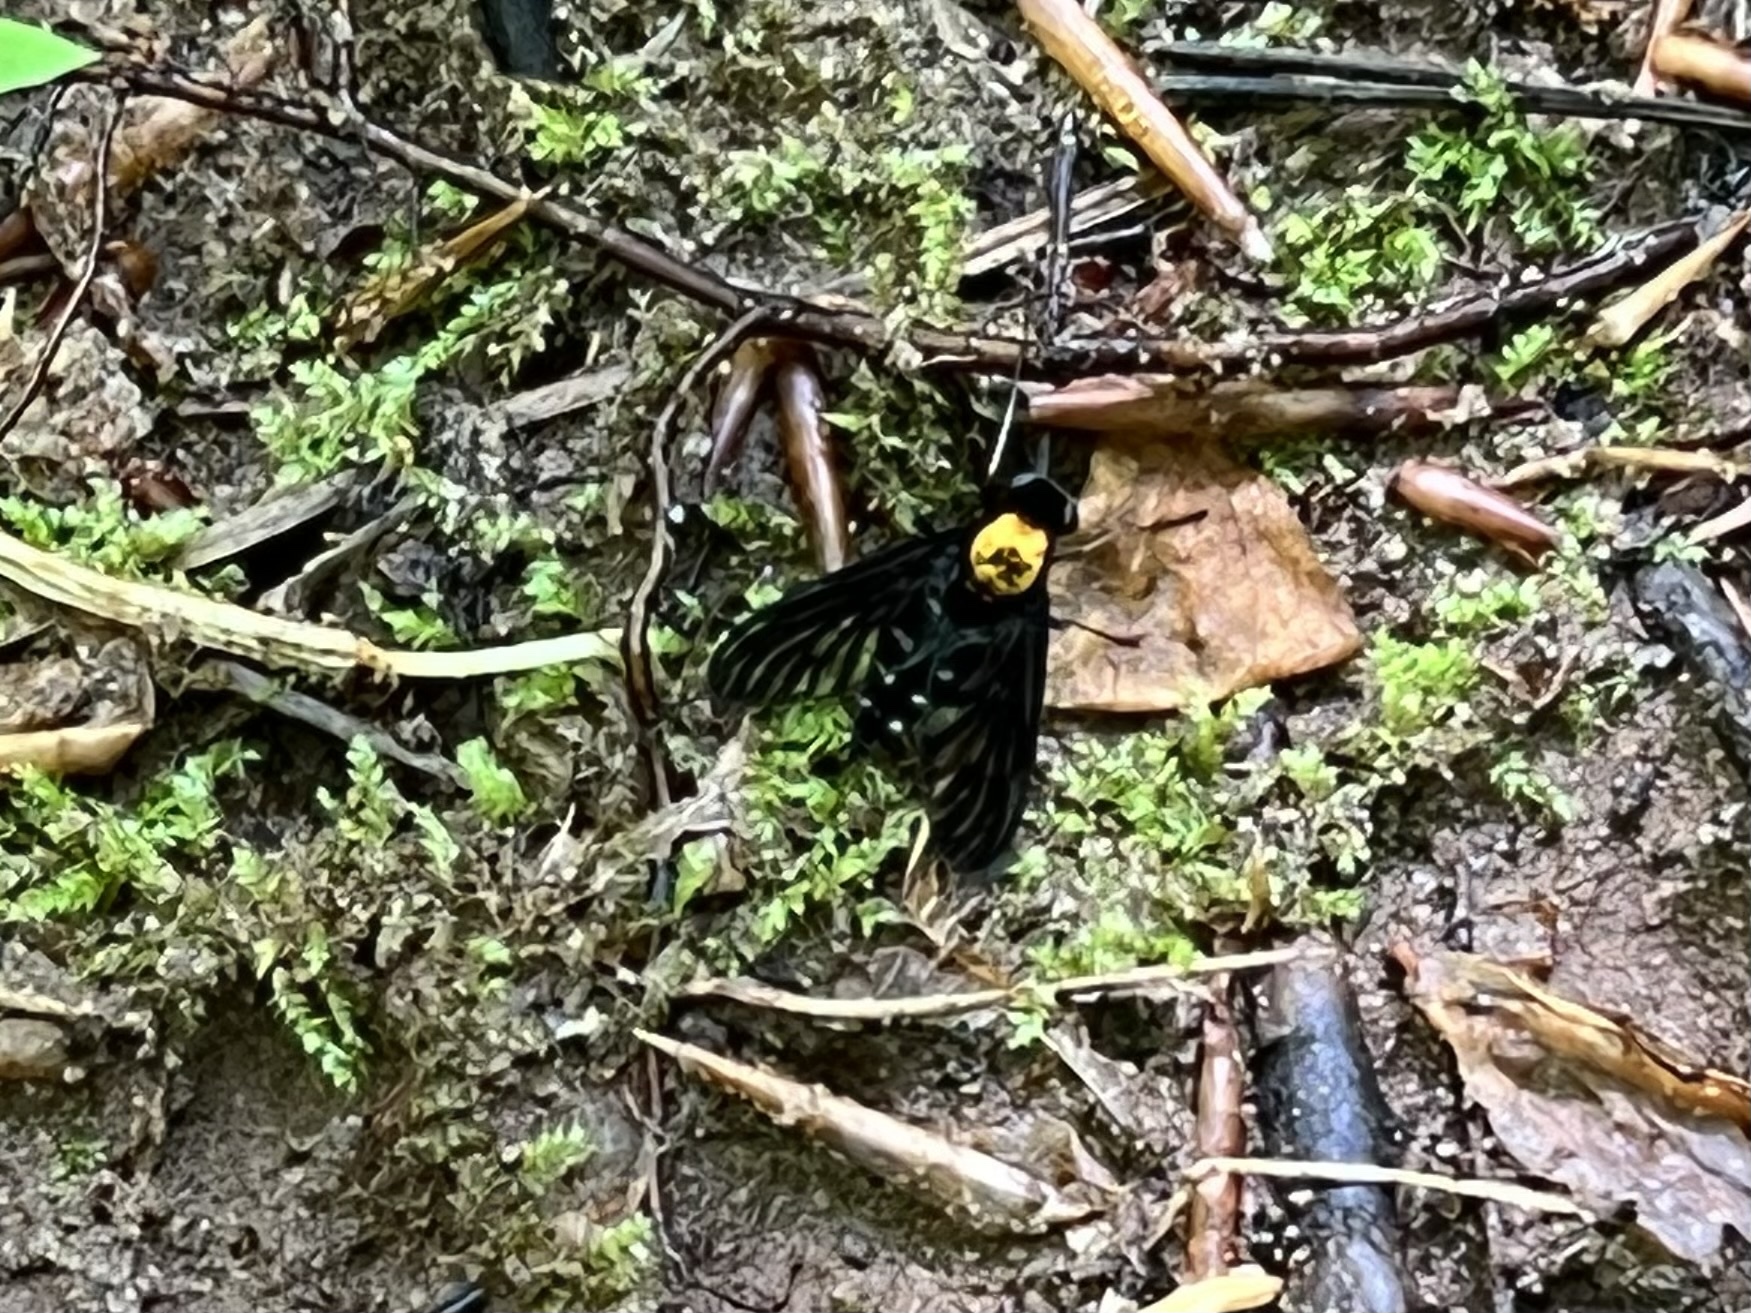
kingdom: Animalia
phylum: Arthropoda
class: Insecta
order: Diptera
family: Rhagionidae
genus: Chrysopilus
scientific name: Chrysopilus thoracicus
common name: Golden-backed snipe fly
